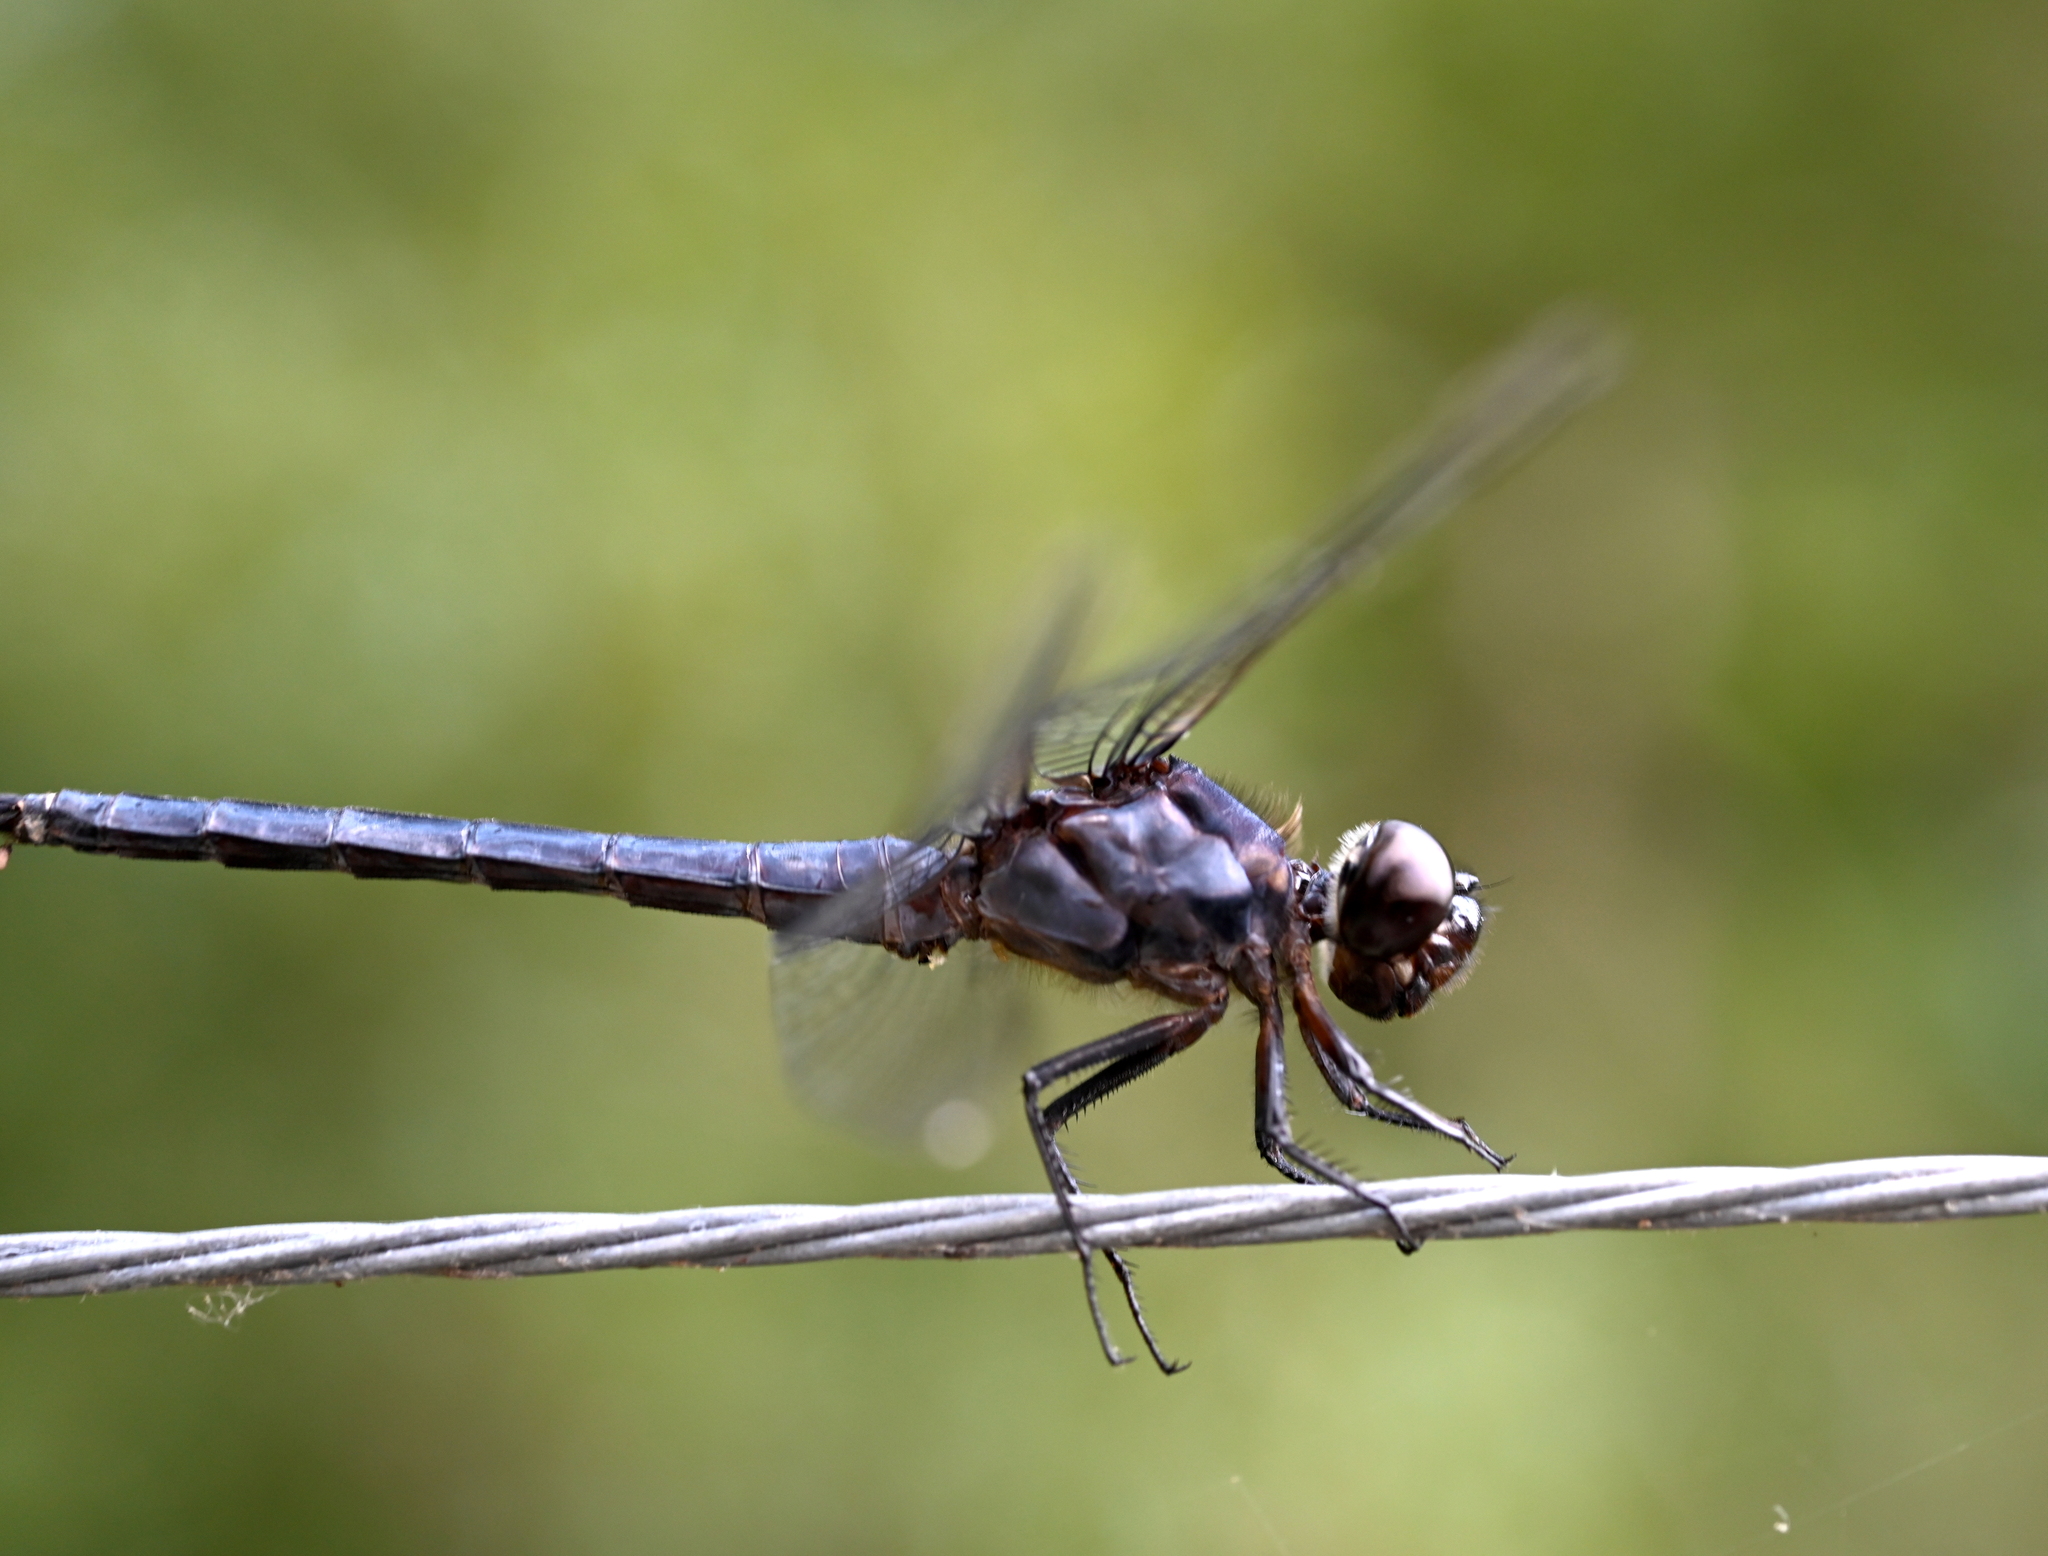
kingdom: Animalia
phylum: Arthropoda
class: Insecta
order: Odonata
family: Libellulidae
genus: Libellula
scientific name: Libellula incesta
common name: Slaty skimmer
